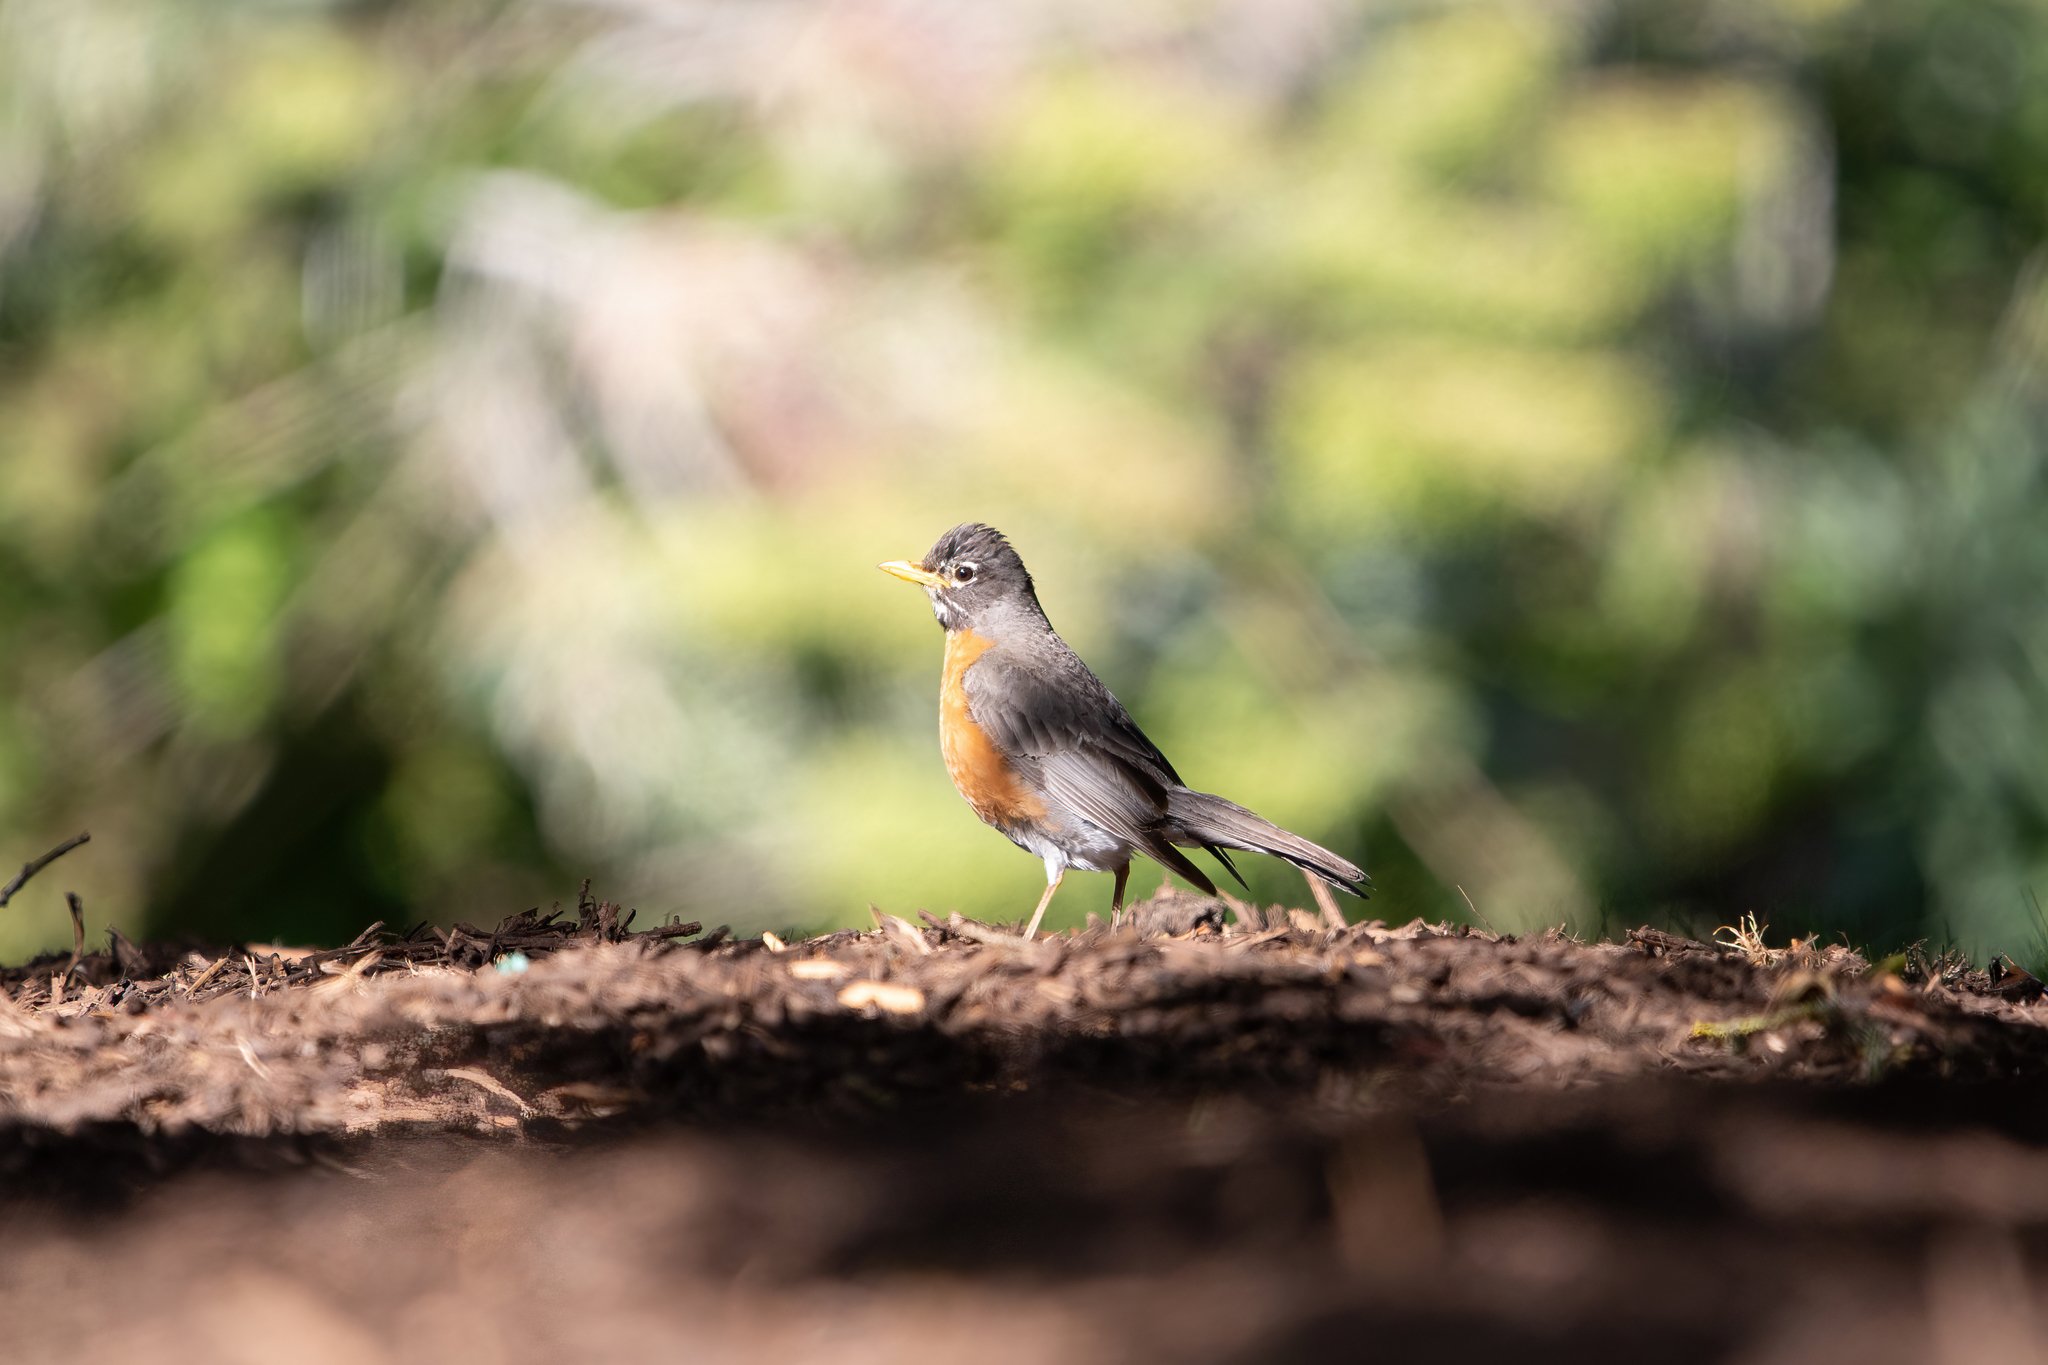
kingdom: Animalia
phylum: Chordata
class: Aves
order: Passeriformes
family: Turdidae
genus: Turdus
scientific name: Turdus migratorius
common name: American robin
